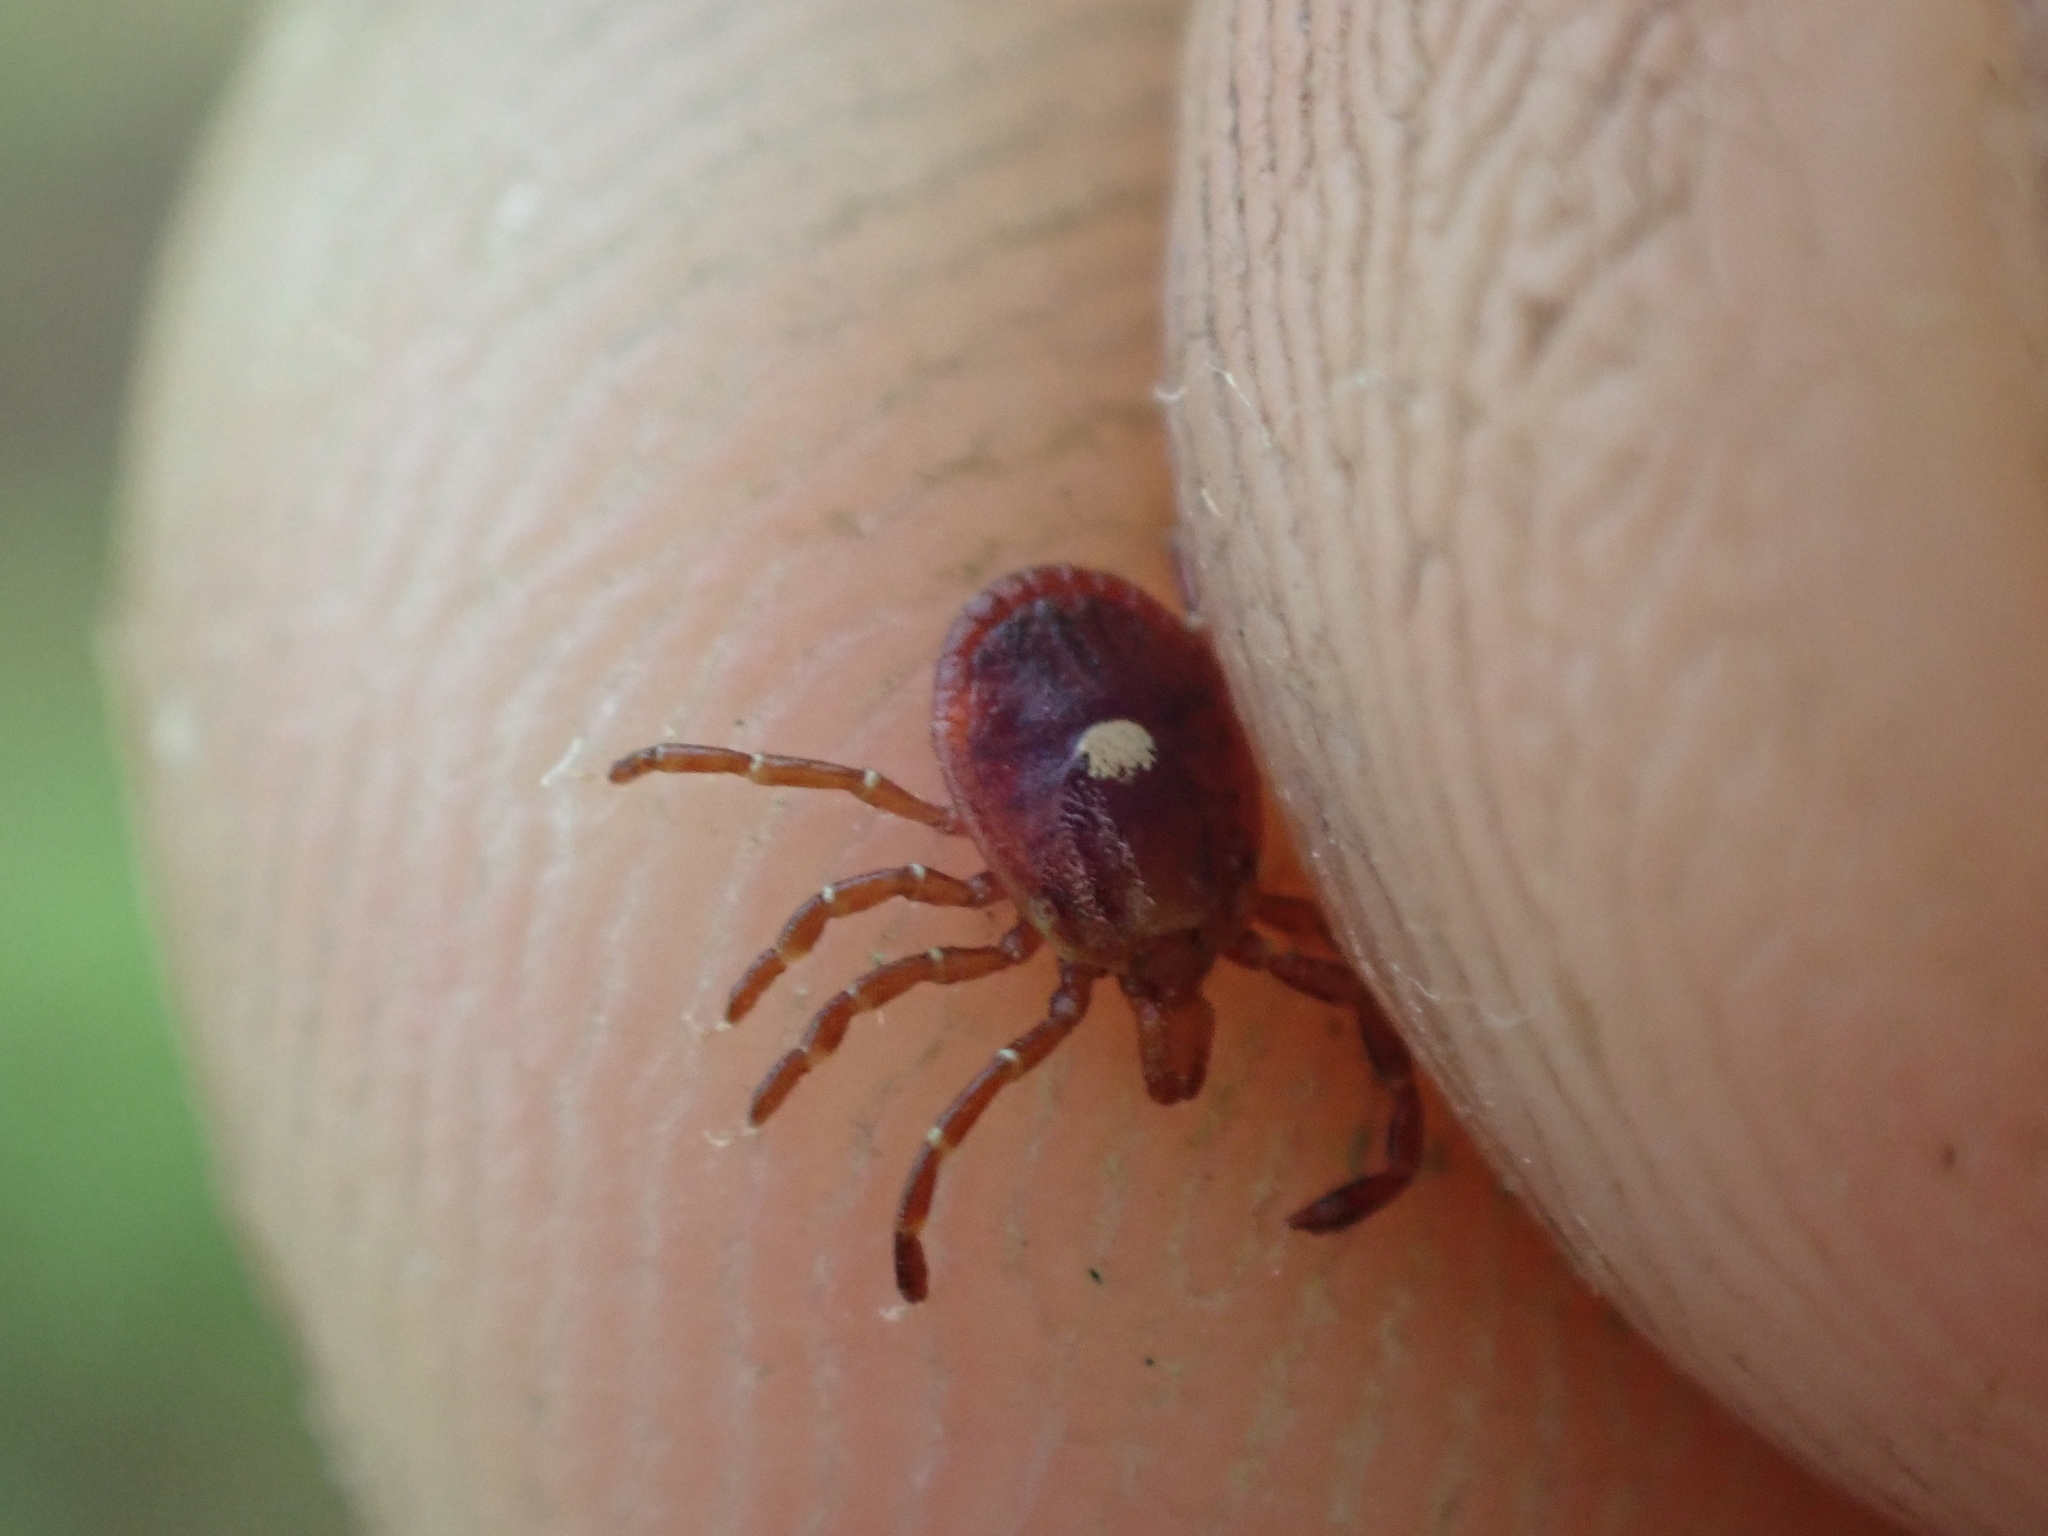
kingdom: Animalia
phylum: Arthropoda
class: Arachnida
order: Ixodida
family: Ixodidae
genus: Amblyomma
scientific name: Amblyomma americanum
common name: Lone star tick
